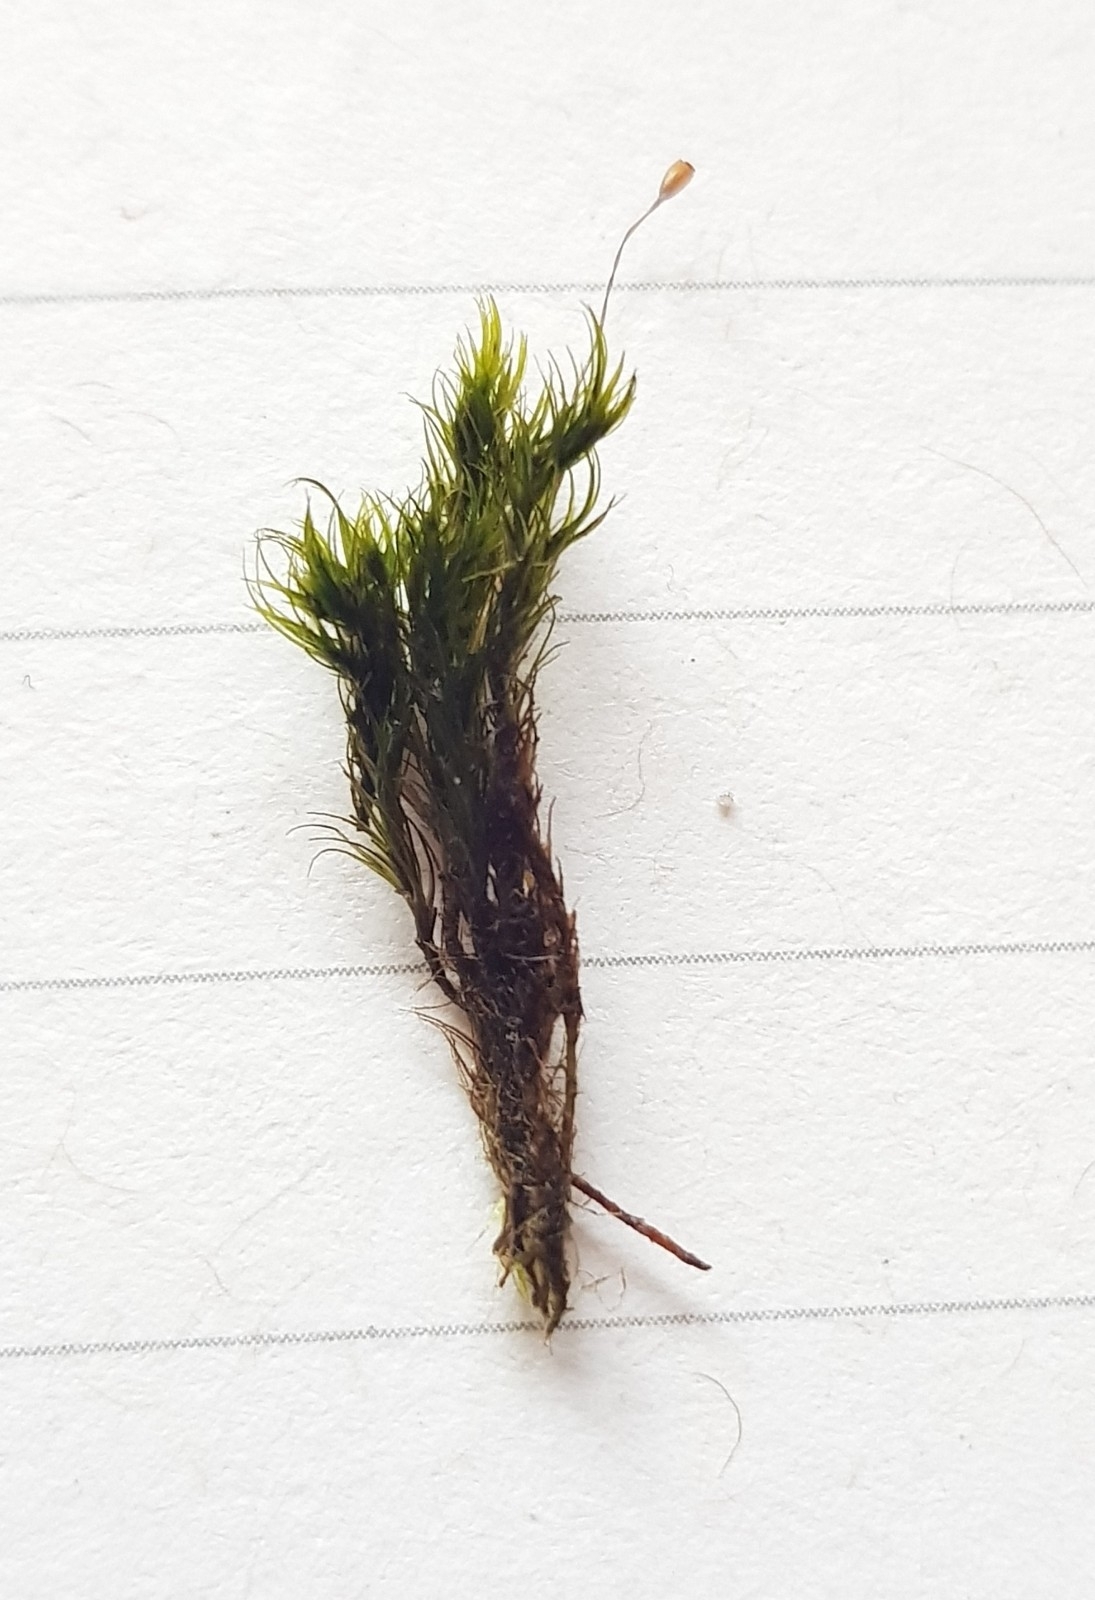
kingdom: Plantae
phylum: Bryophyta
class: Bryopsida
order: Dicranales
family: Dicranellaceae
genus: Dicranella
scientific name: Dicranella heteromalla
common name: Silky forklet moss
